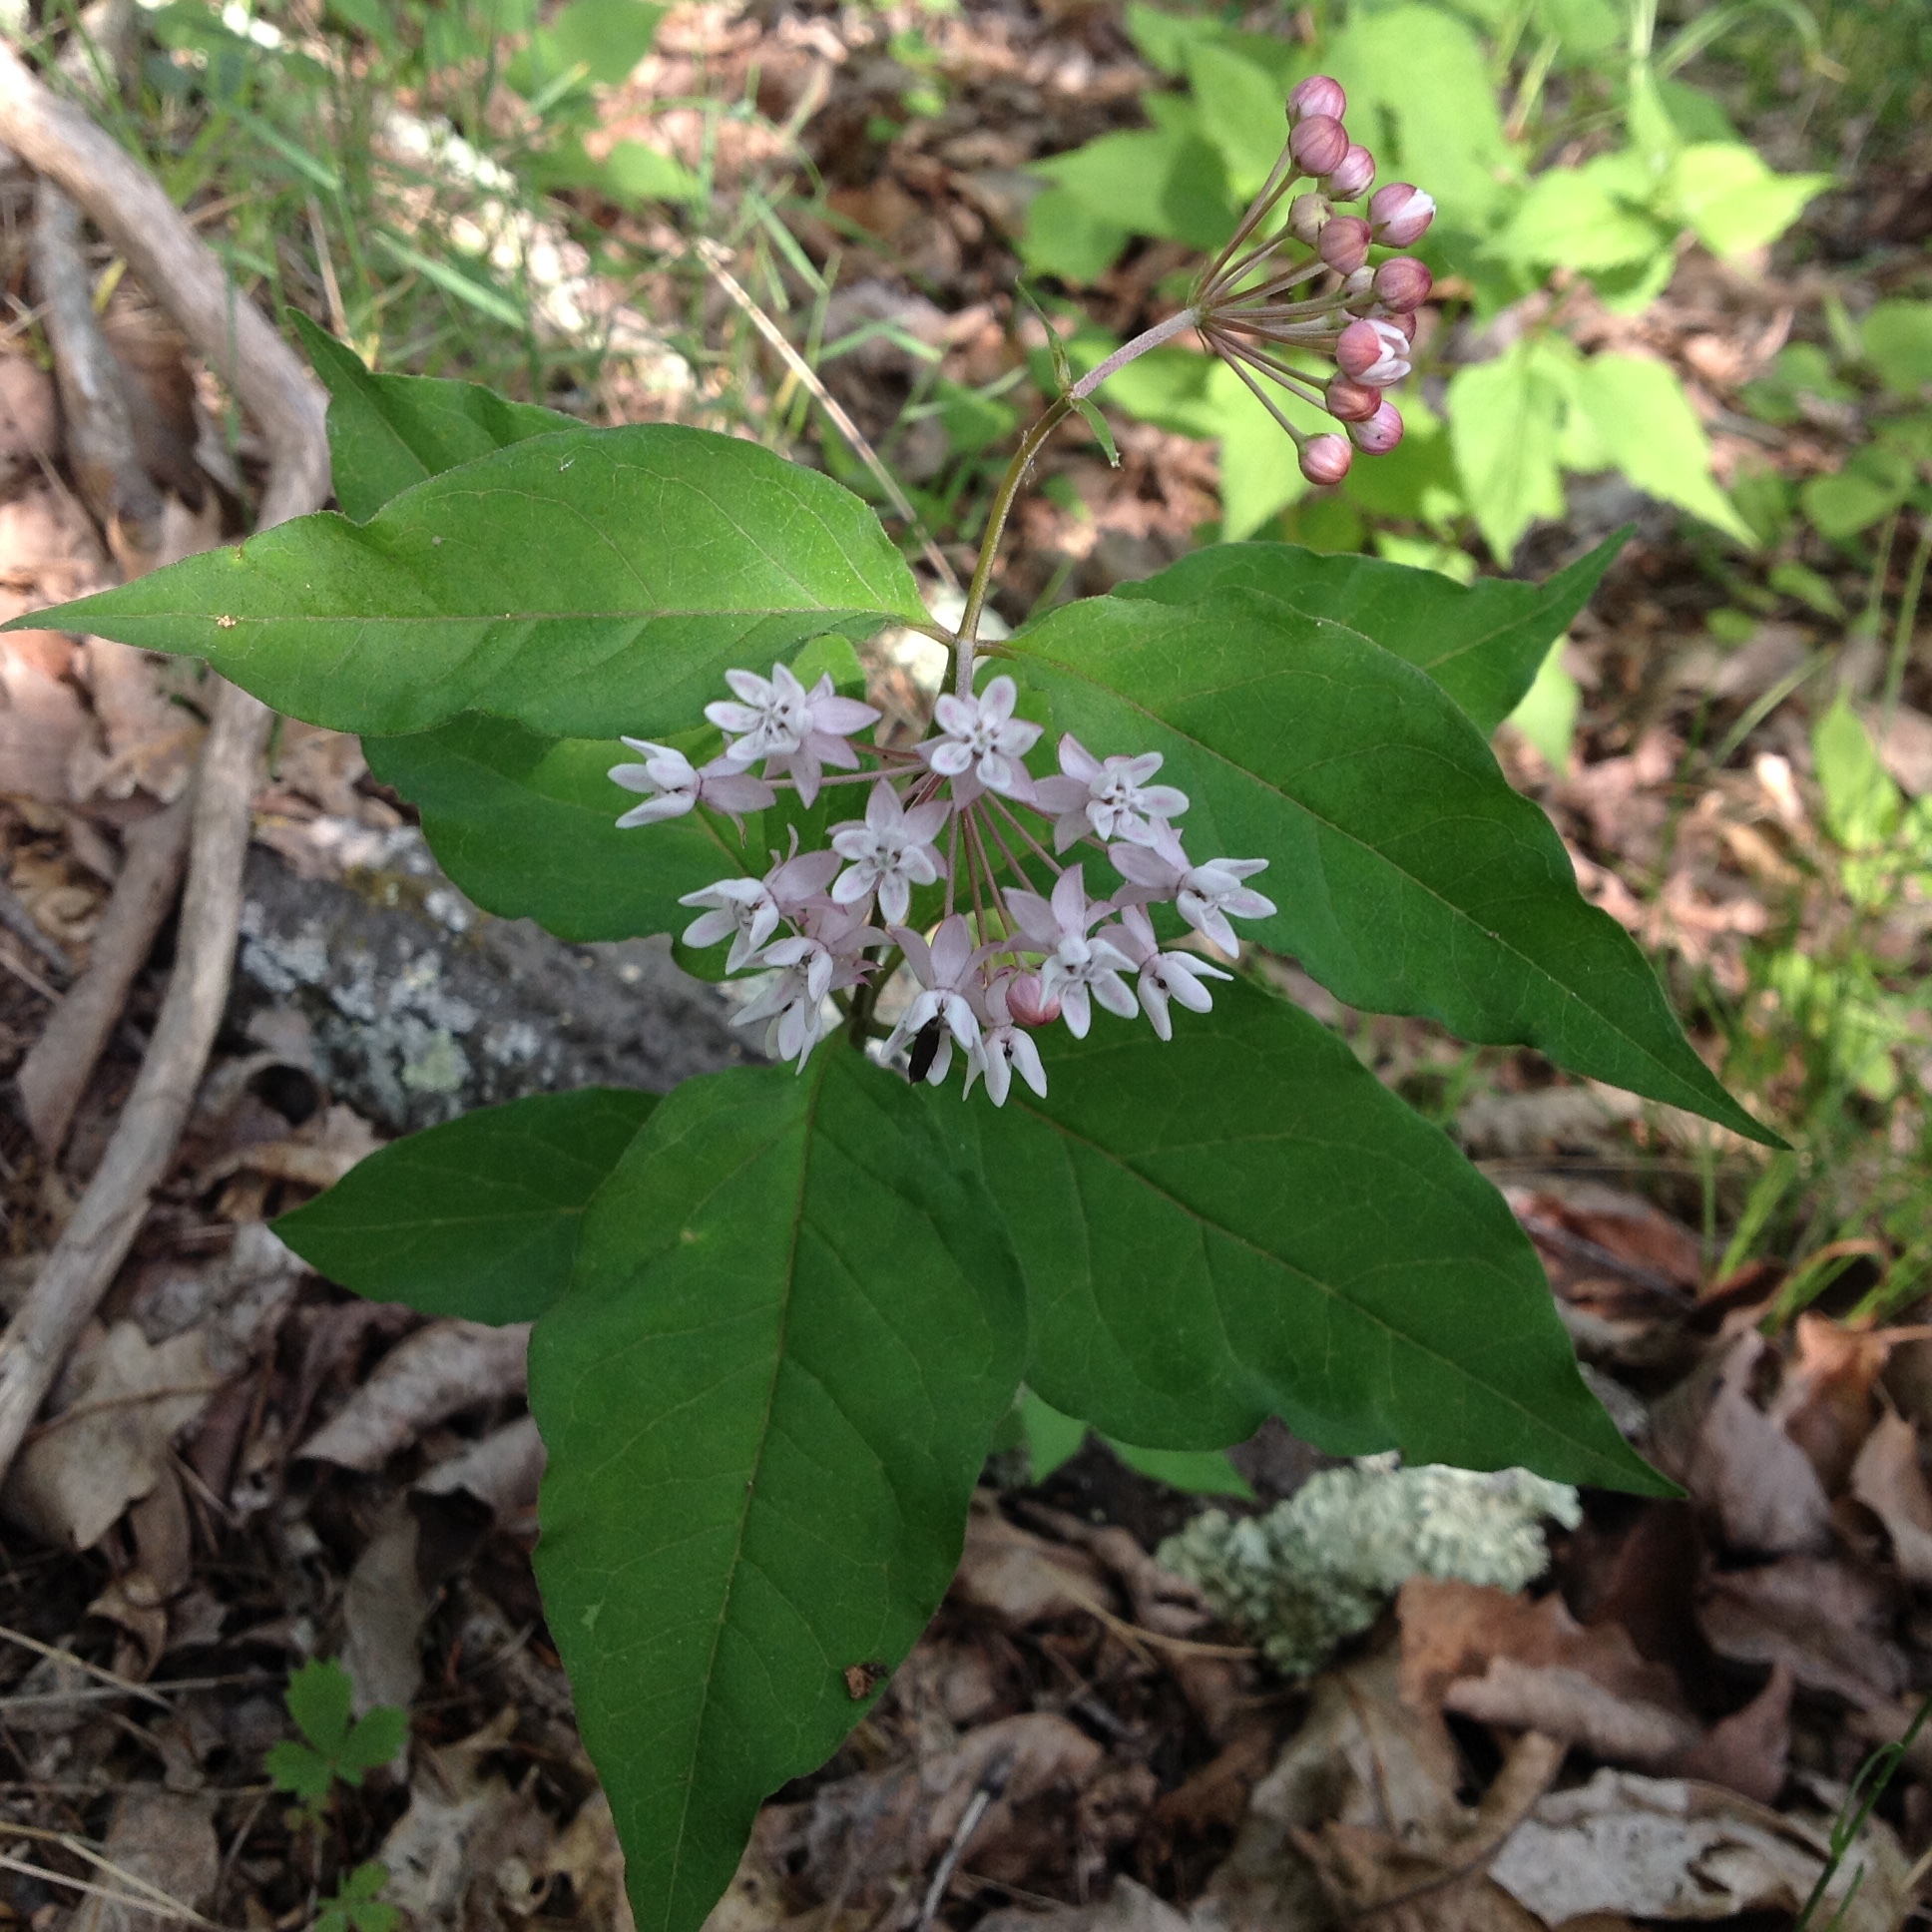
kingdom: Plantae
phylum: Tracheophyta
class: Magnoliopsida
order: Gentianales
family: Apocynaceae
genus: Asclepias
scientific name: Asclepias quadrifolia
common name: Whorled milkweed
